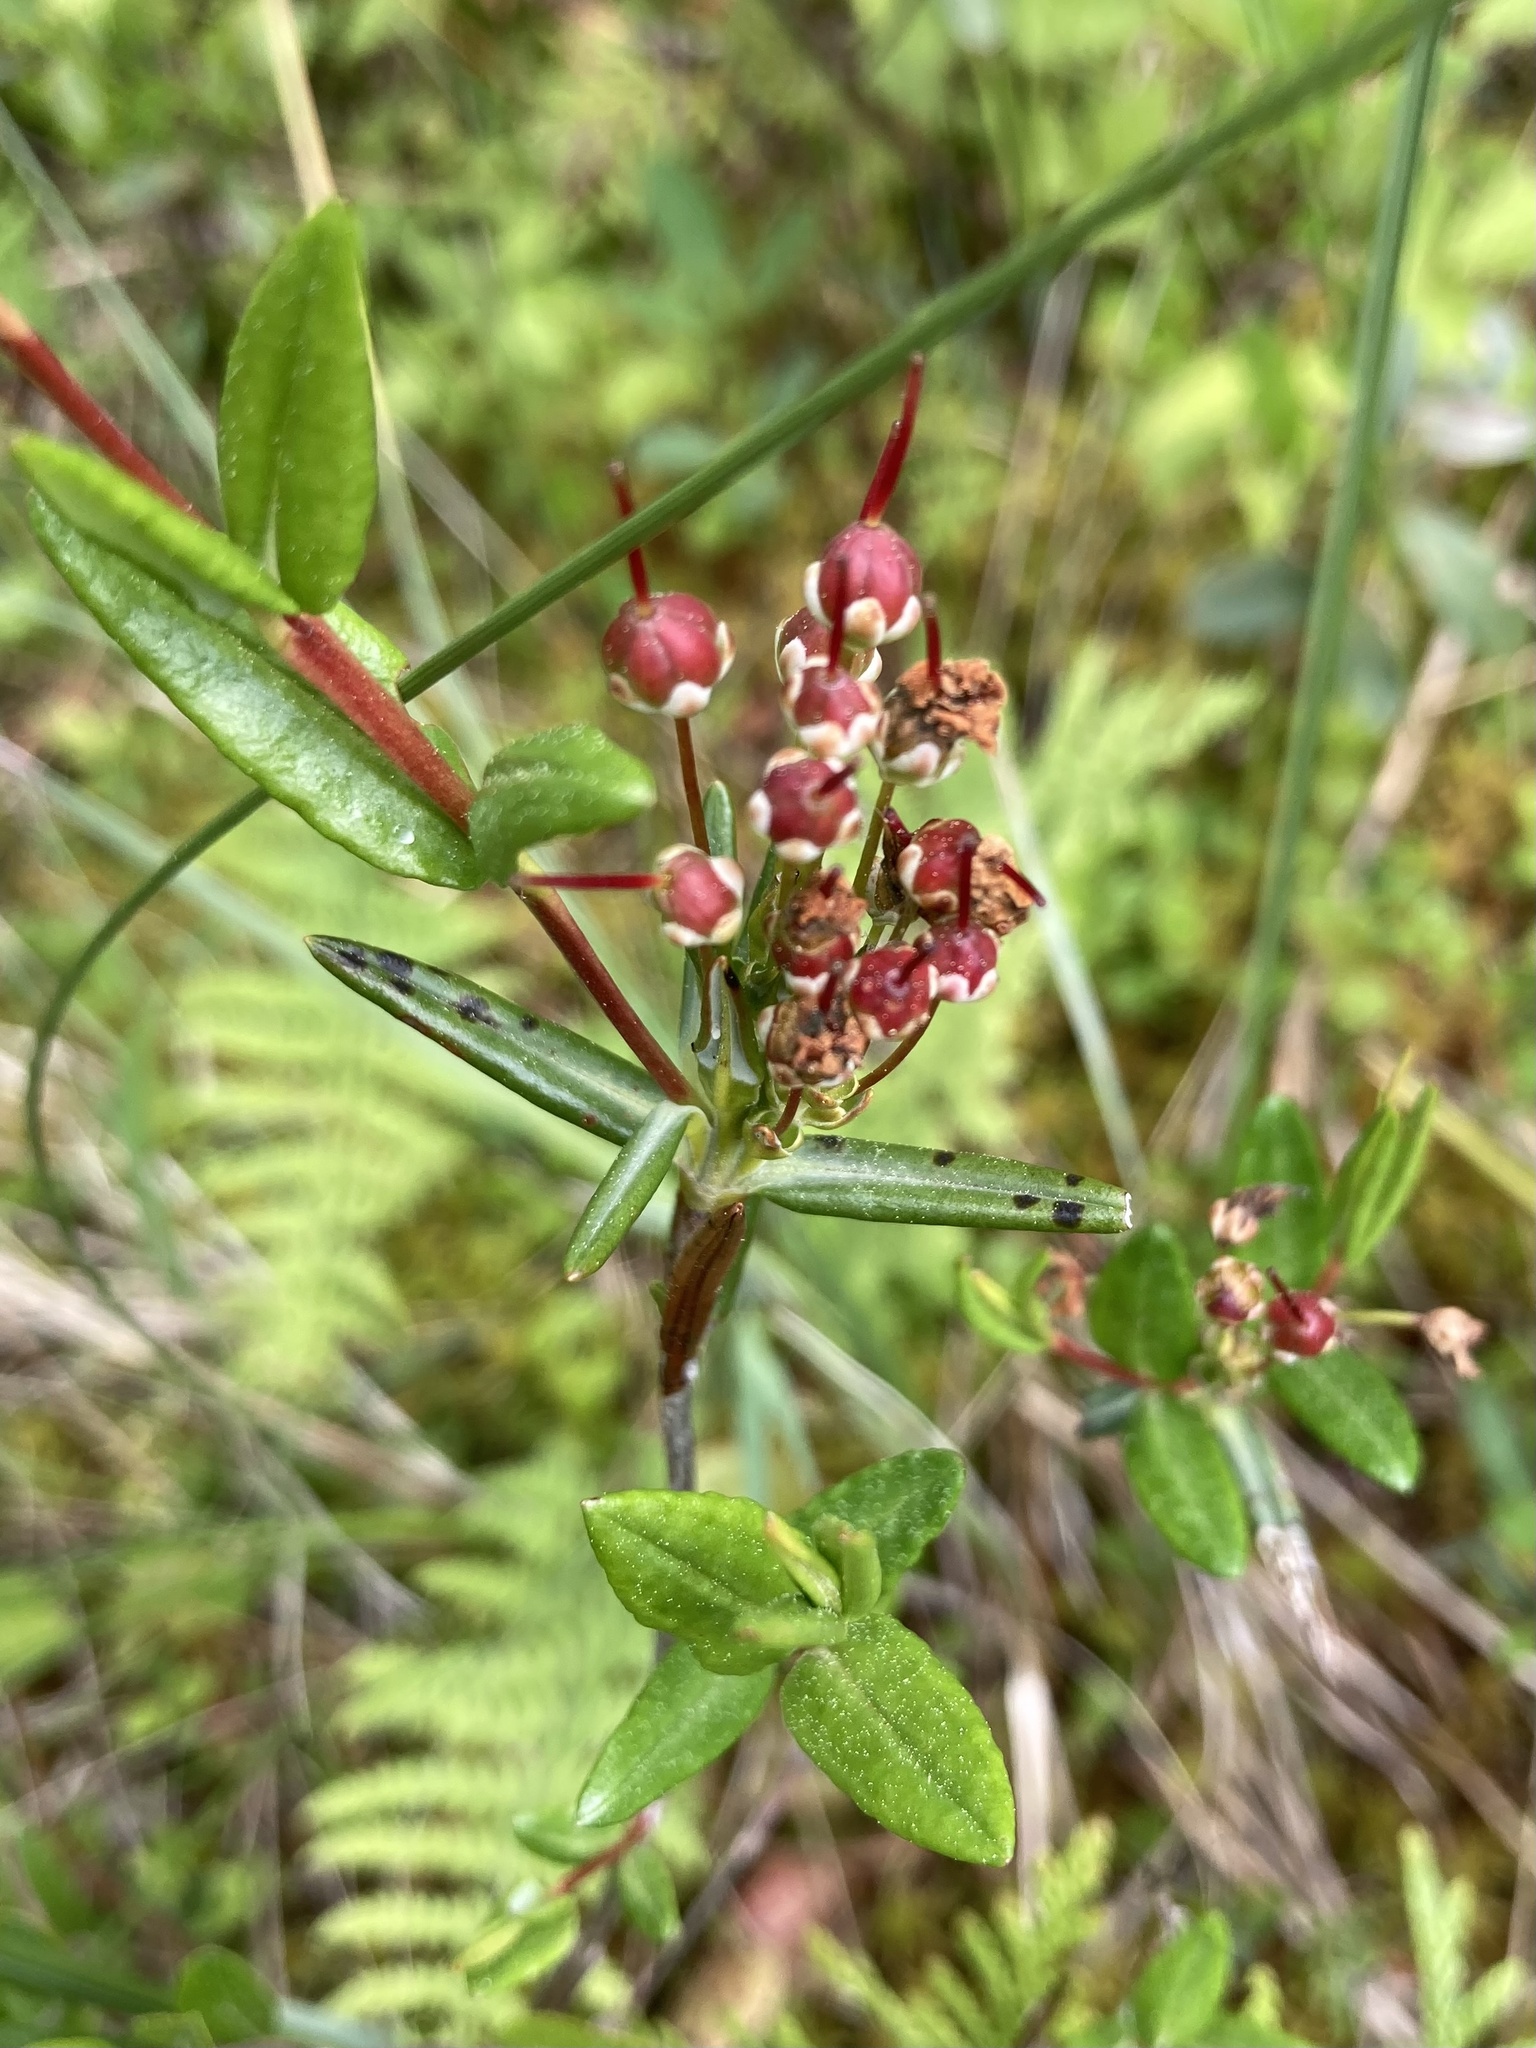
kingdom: Plantae
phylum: Tracheophyta
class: Magnoliopsida
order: Ericales
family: Ericaceae
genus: Kalmia
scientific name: Kalmia polifolia
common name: Bog-laurel
